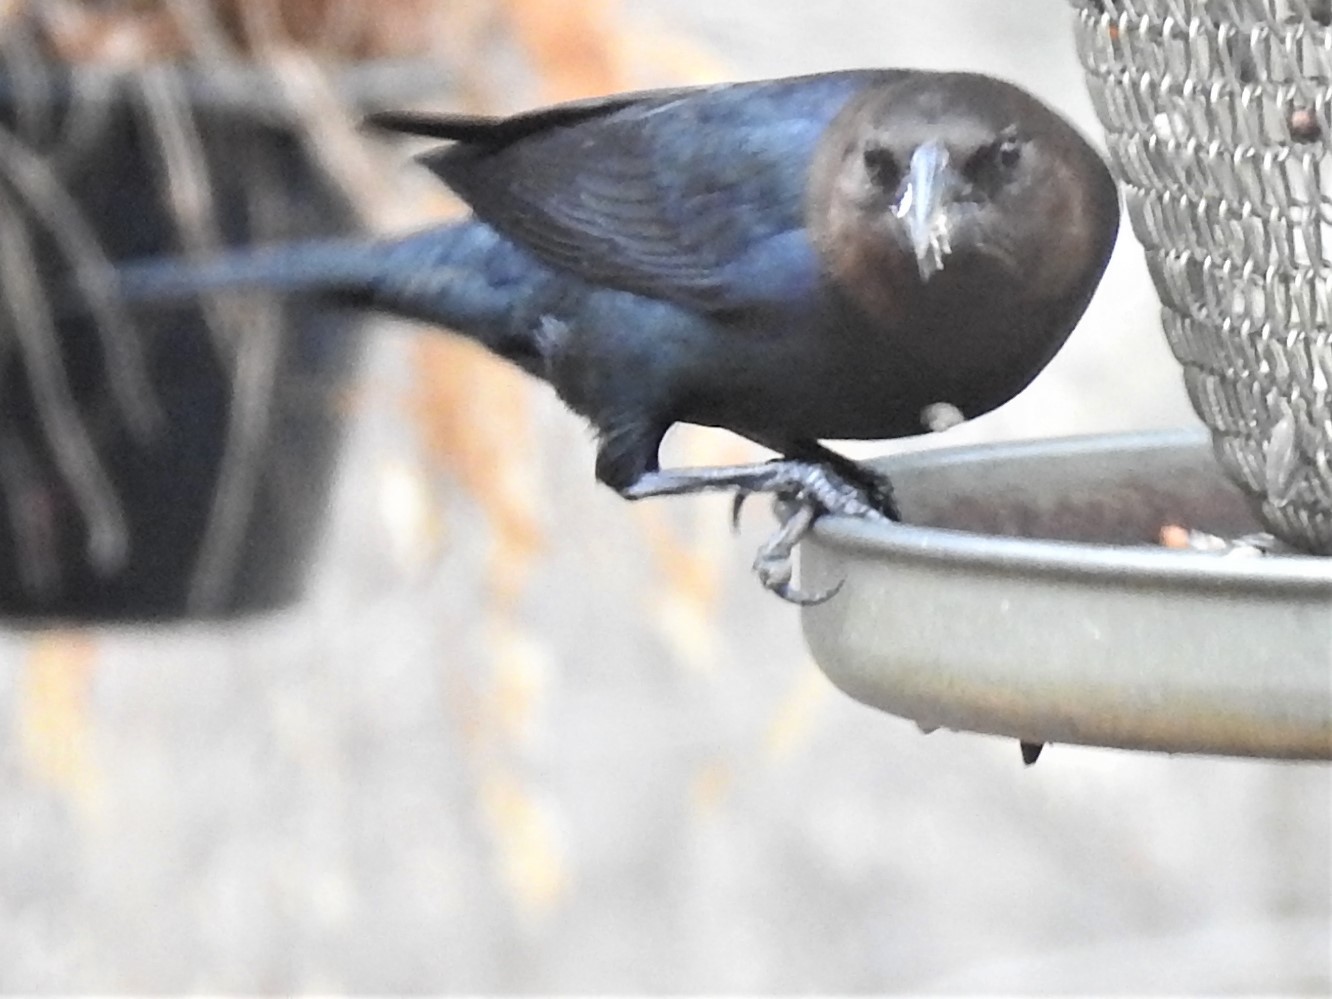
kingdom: Animalia
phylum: Chordata
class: Aves
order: Passeriformes
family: Icteridae
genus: Molothrus
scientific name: Molothrus ater
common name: Brown-headed cowbird
